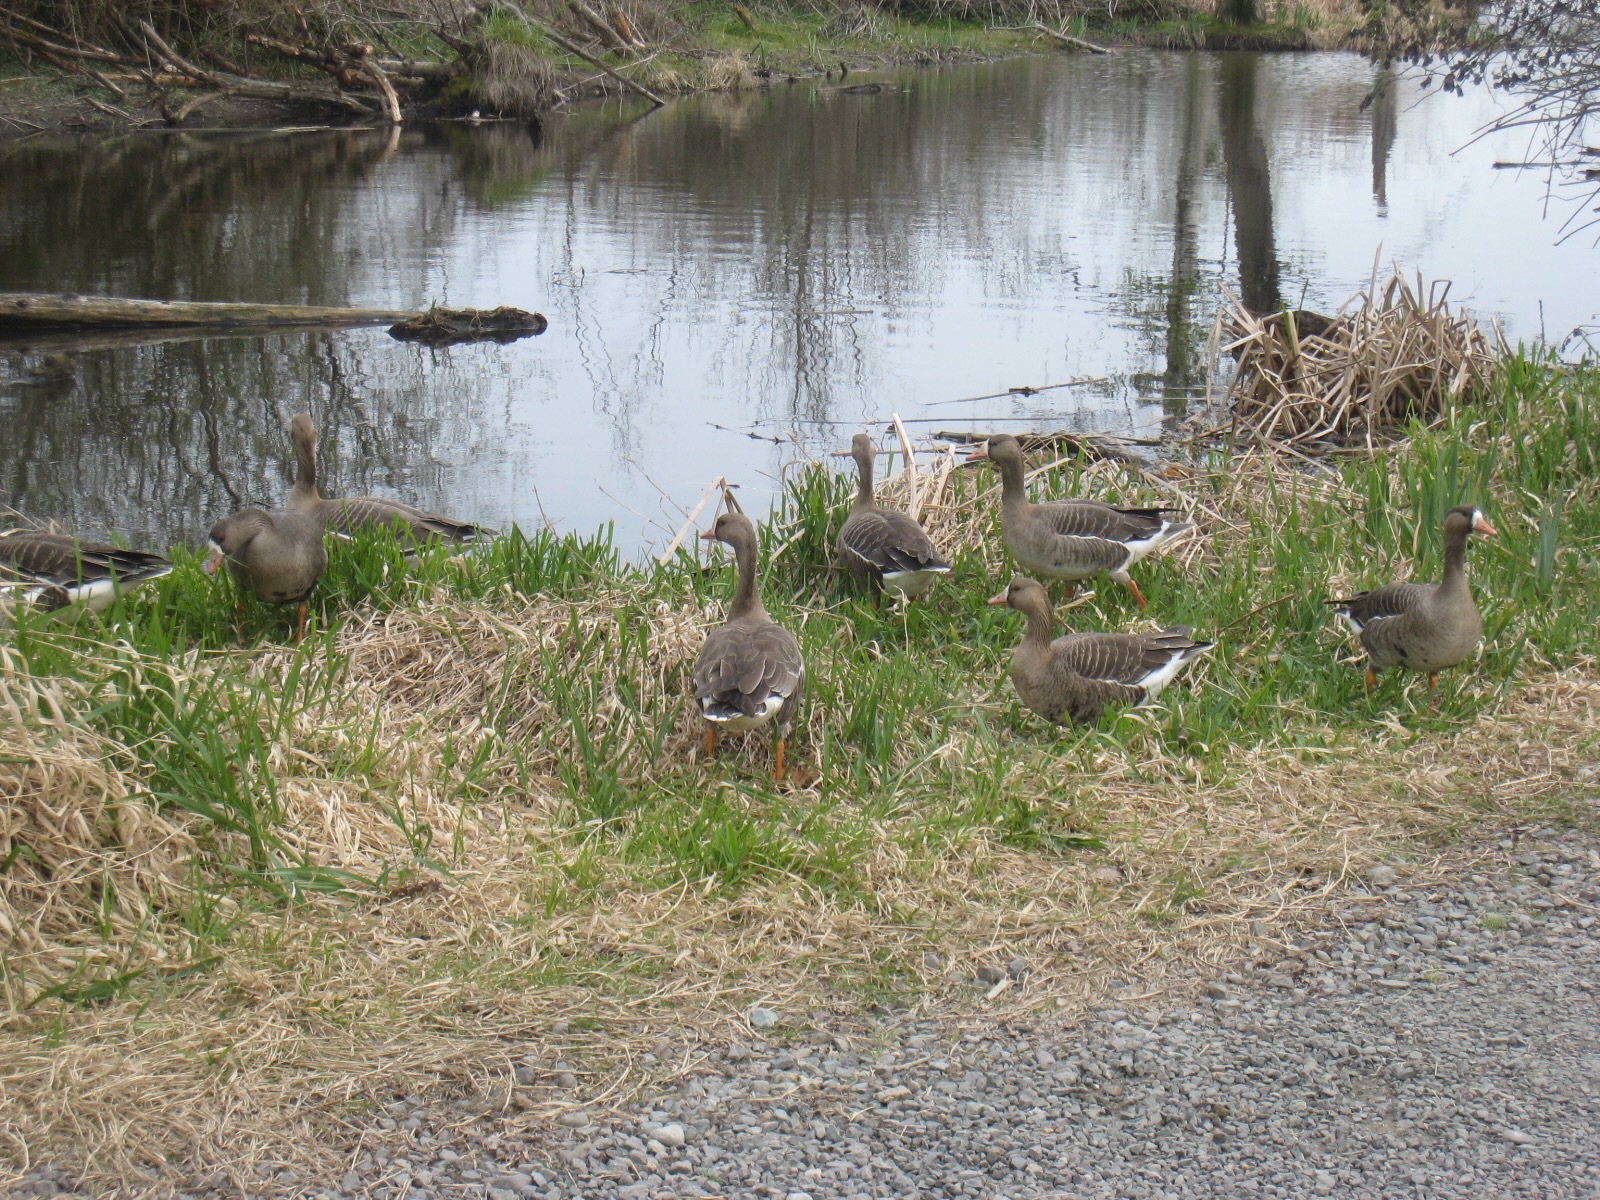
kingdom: Animalia
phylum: Chordata
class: Aves
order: Anseriformes
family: Anatidae
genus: Anser
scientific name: Anser albifrons
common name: Greater white-fronted goose
